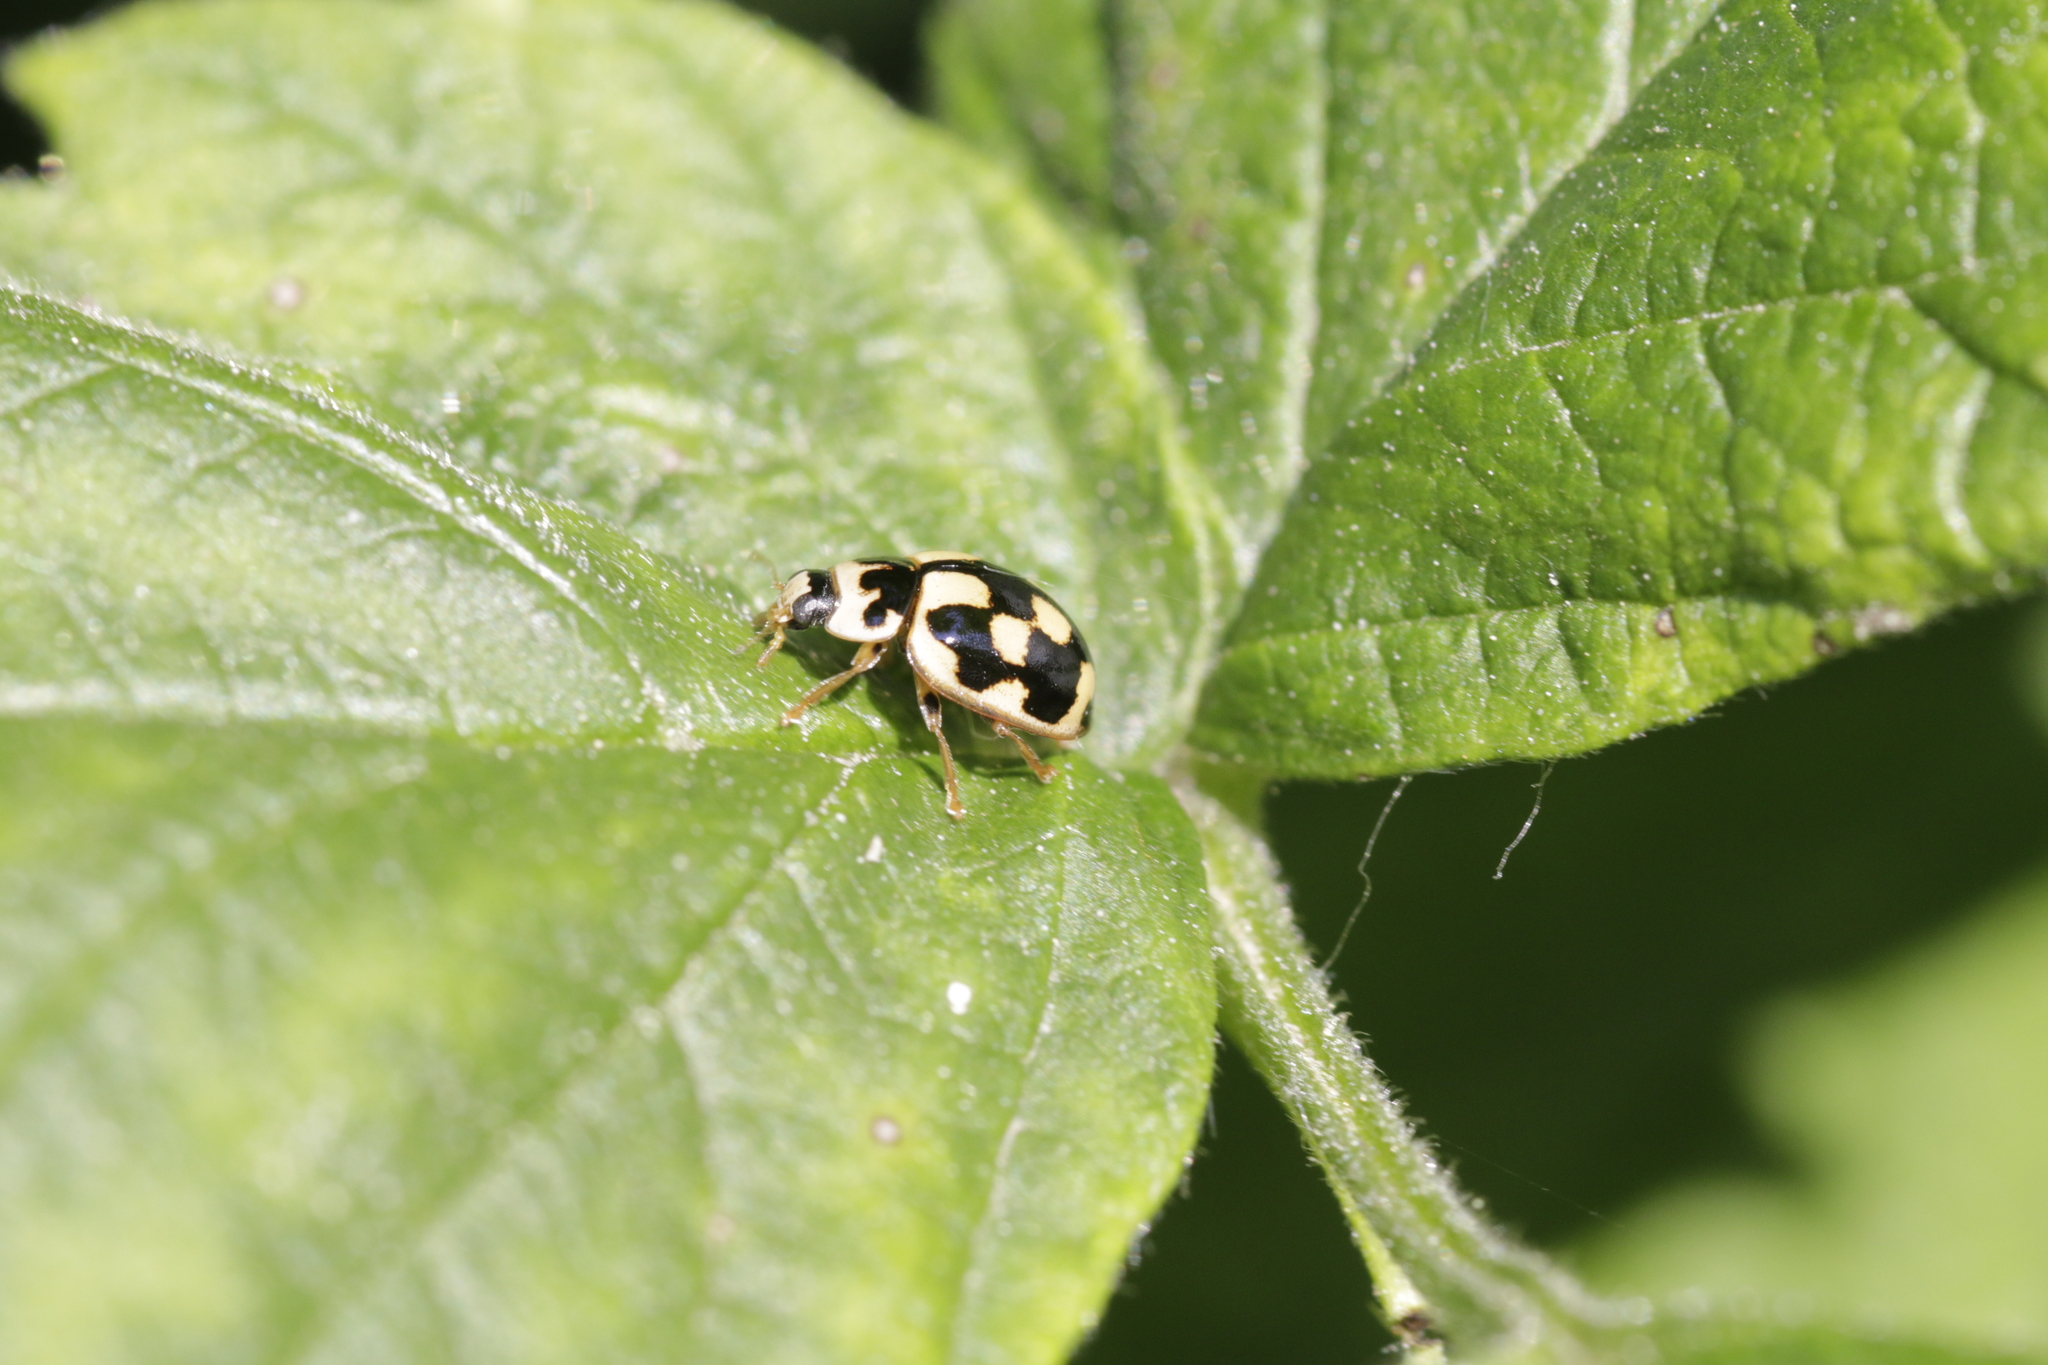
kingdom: Animalia
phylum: Arthropoda
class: Insecta
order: Coleoptera
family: Coccinellidae
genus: Propylaea
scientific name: Propylaea quatuordecimpunctata
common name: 14-spotted ladybird beetle
